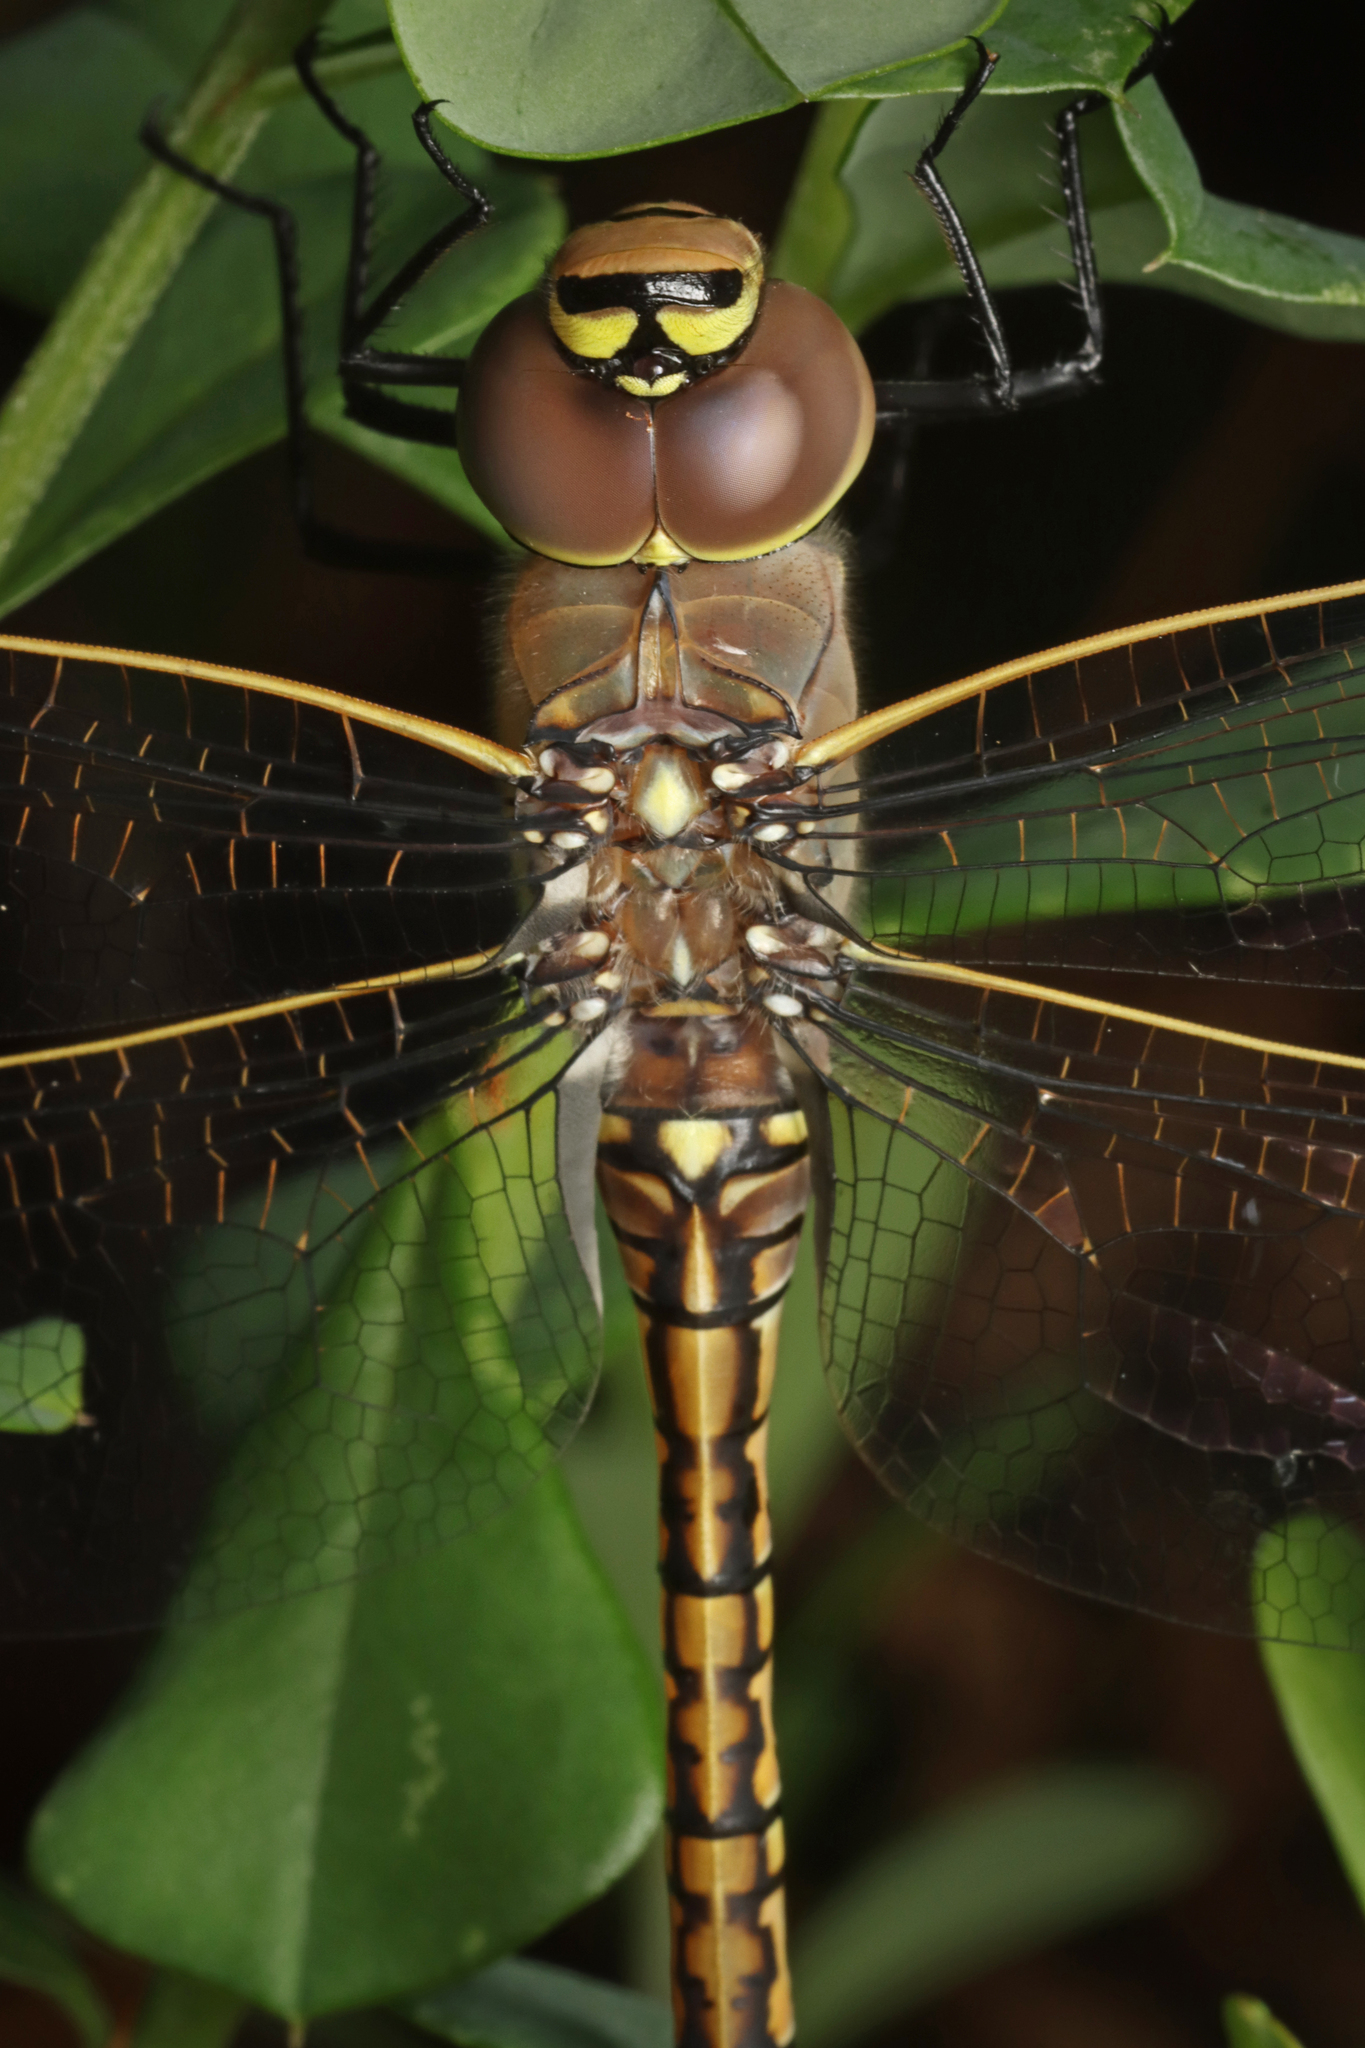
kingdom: Animalia
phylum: Arthropoda
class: Insecta
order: Odonata
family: Corduliidae
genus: Hemicordulia
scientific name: Hemicordulia tau
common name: Tau emerald
